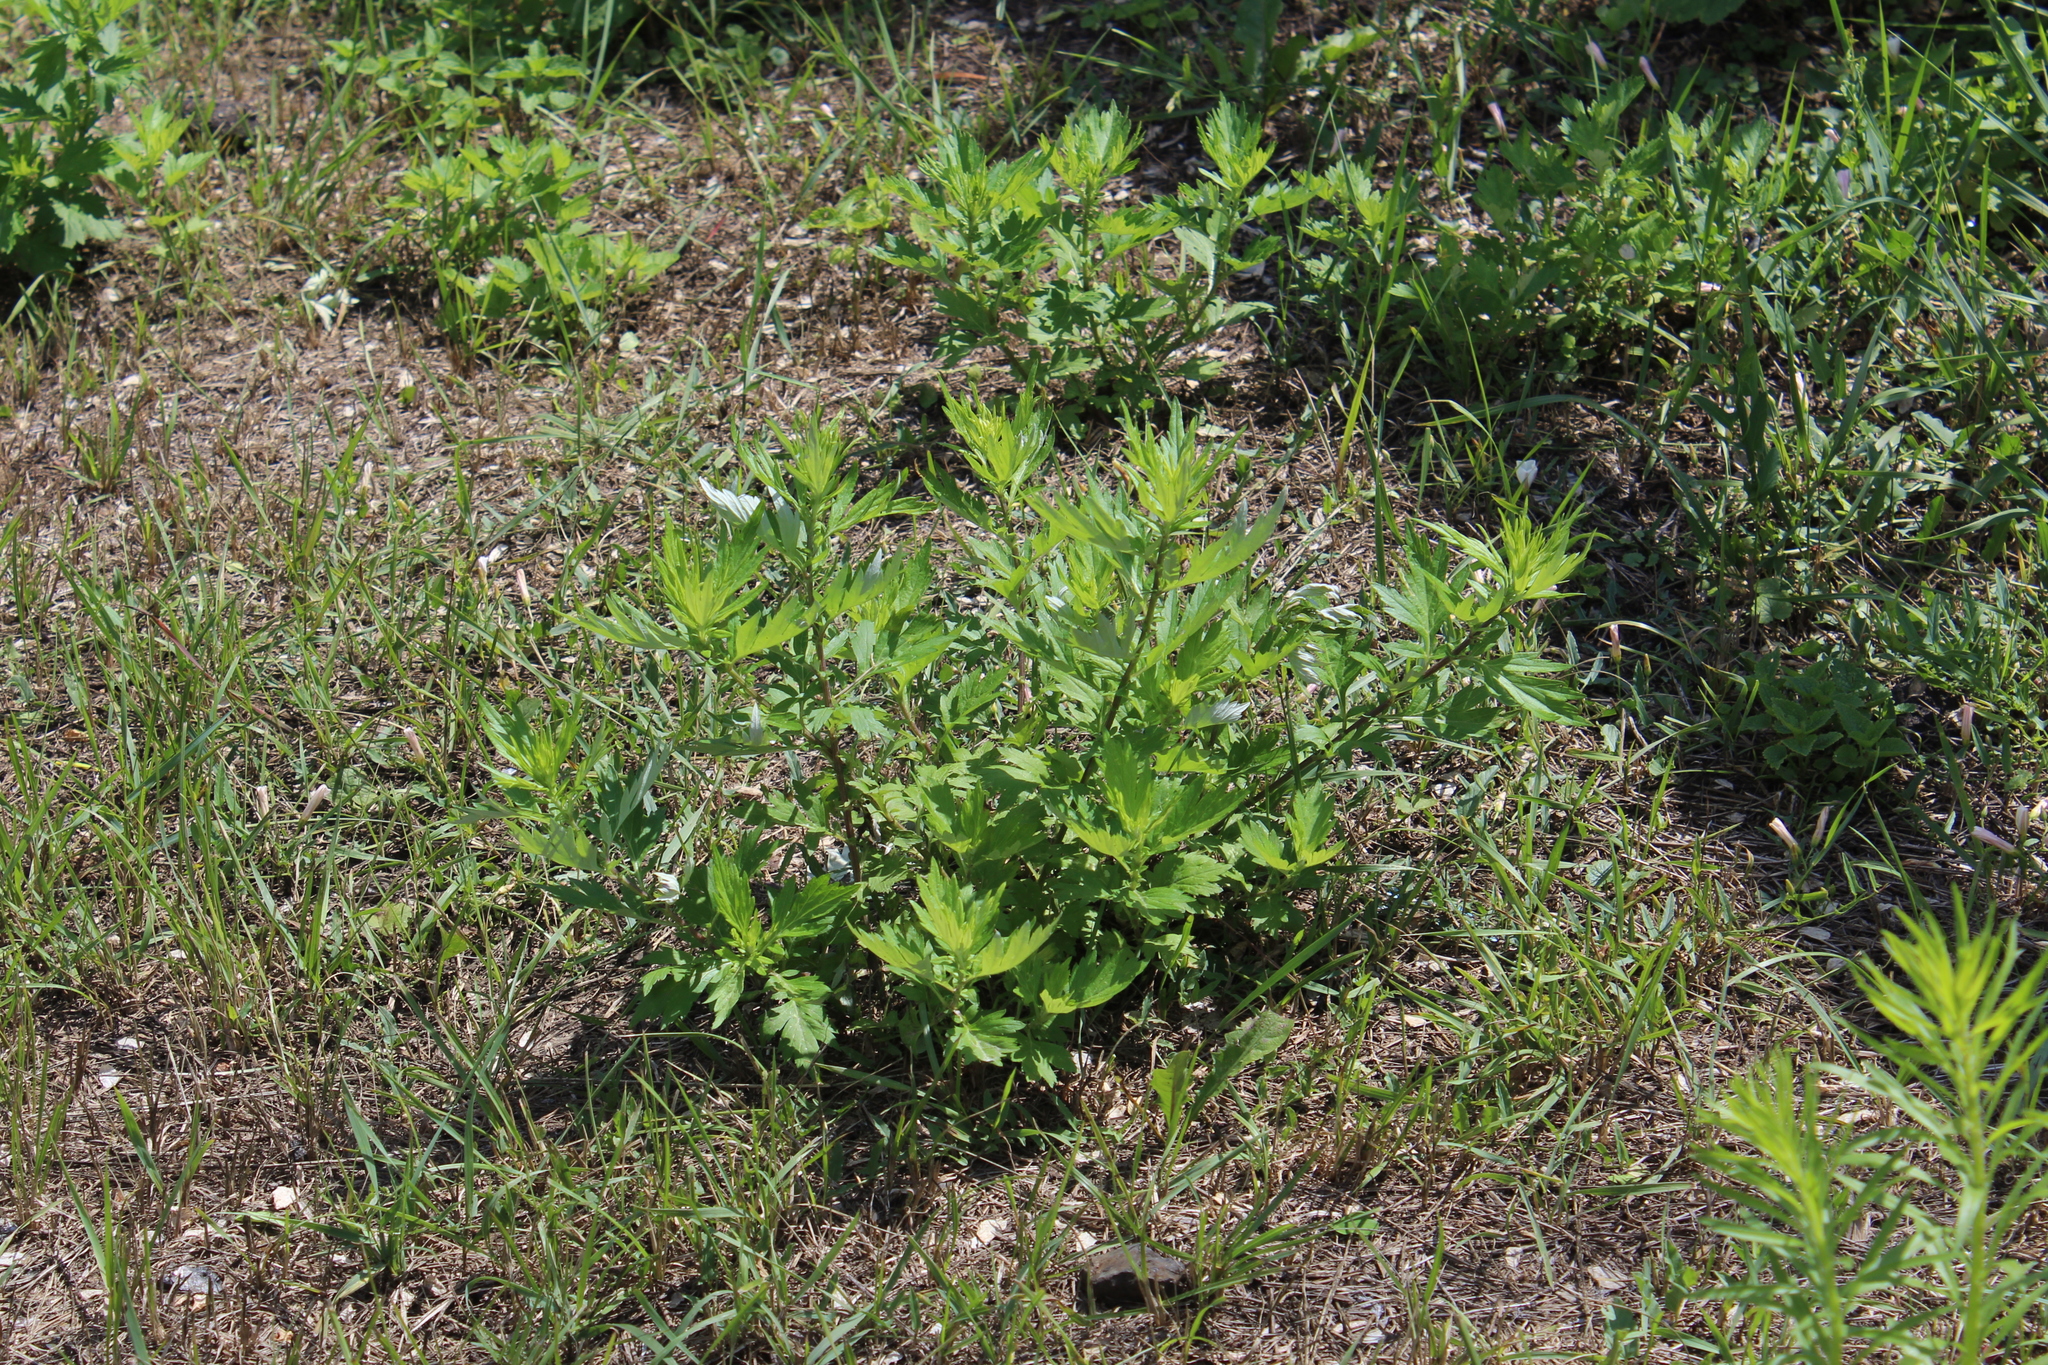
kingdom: Plantae
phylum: Tracheophyta
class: Magnoliopsida
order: Asterales
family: Asteraceae
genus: Artemisia
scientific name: Artemisia vulgaris
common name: Mugwort
